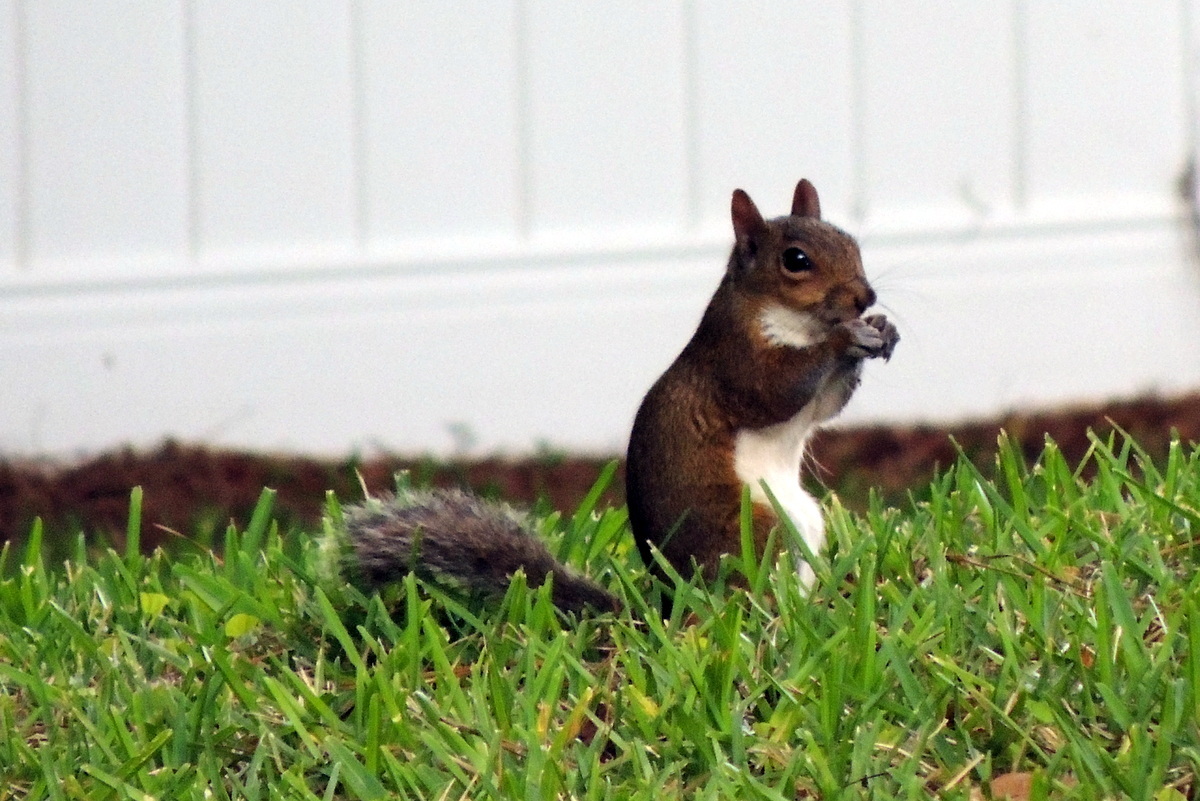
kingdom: Animalia
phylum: Chordata
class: Mammalia
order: Rodentia
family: Sciuridae
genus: Sciurus
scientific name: Sciurus carolinensis
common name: Eastern gray squirrel
